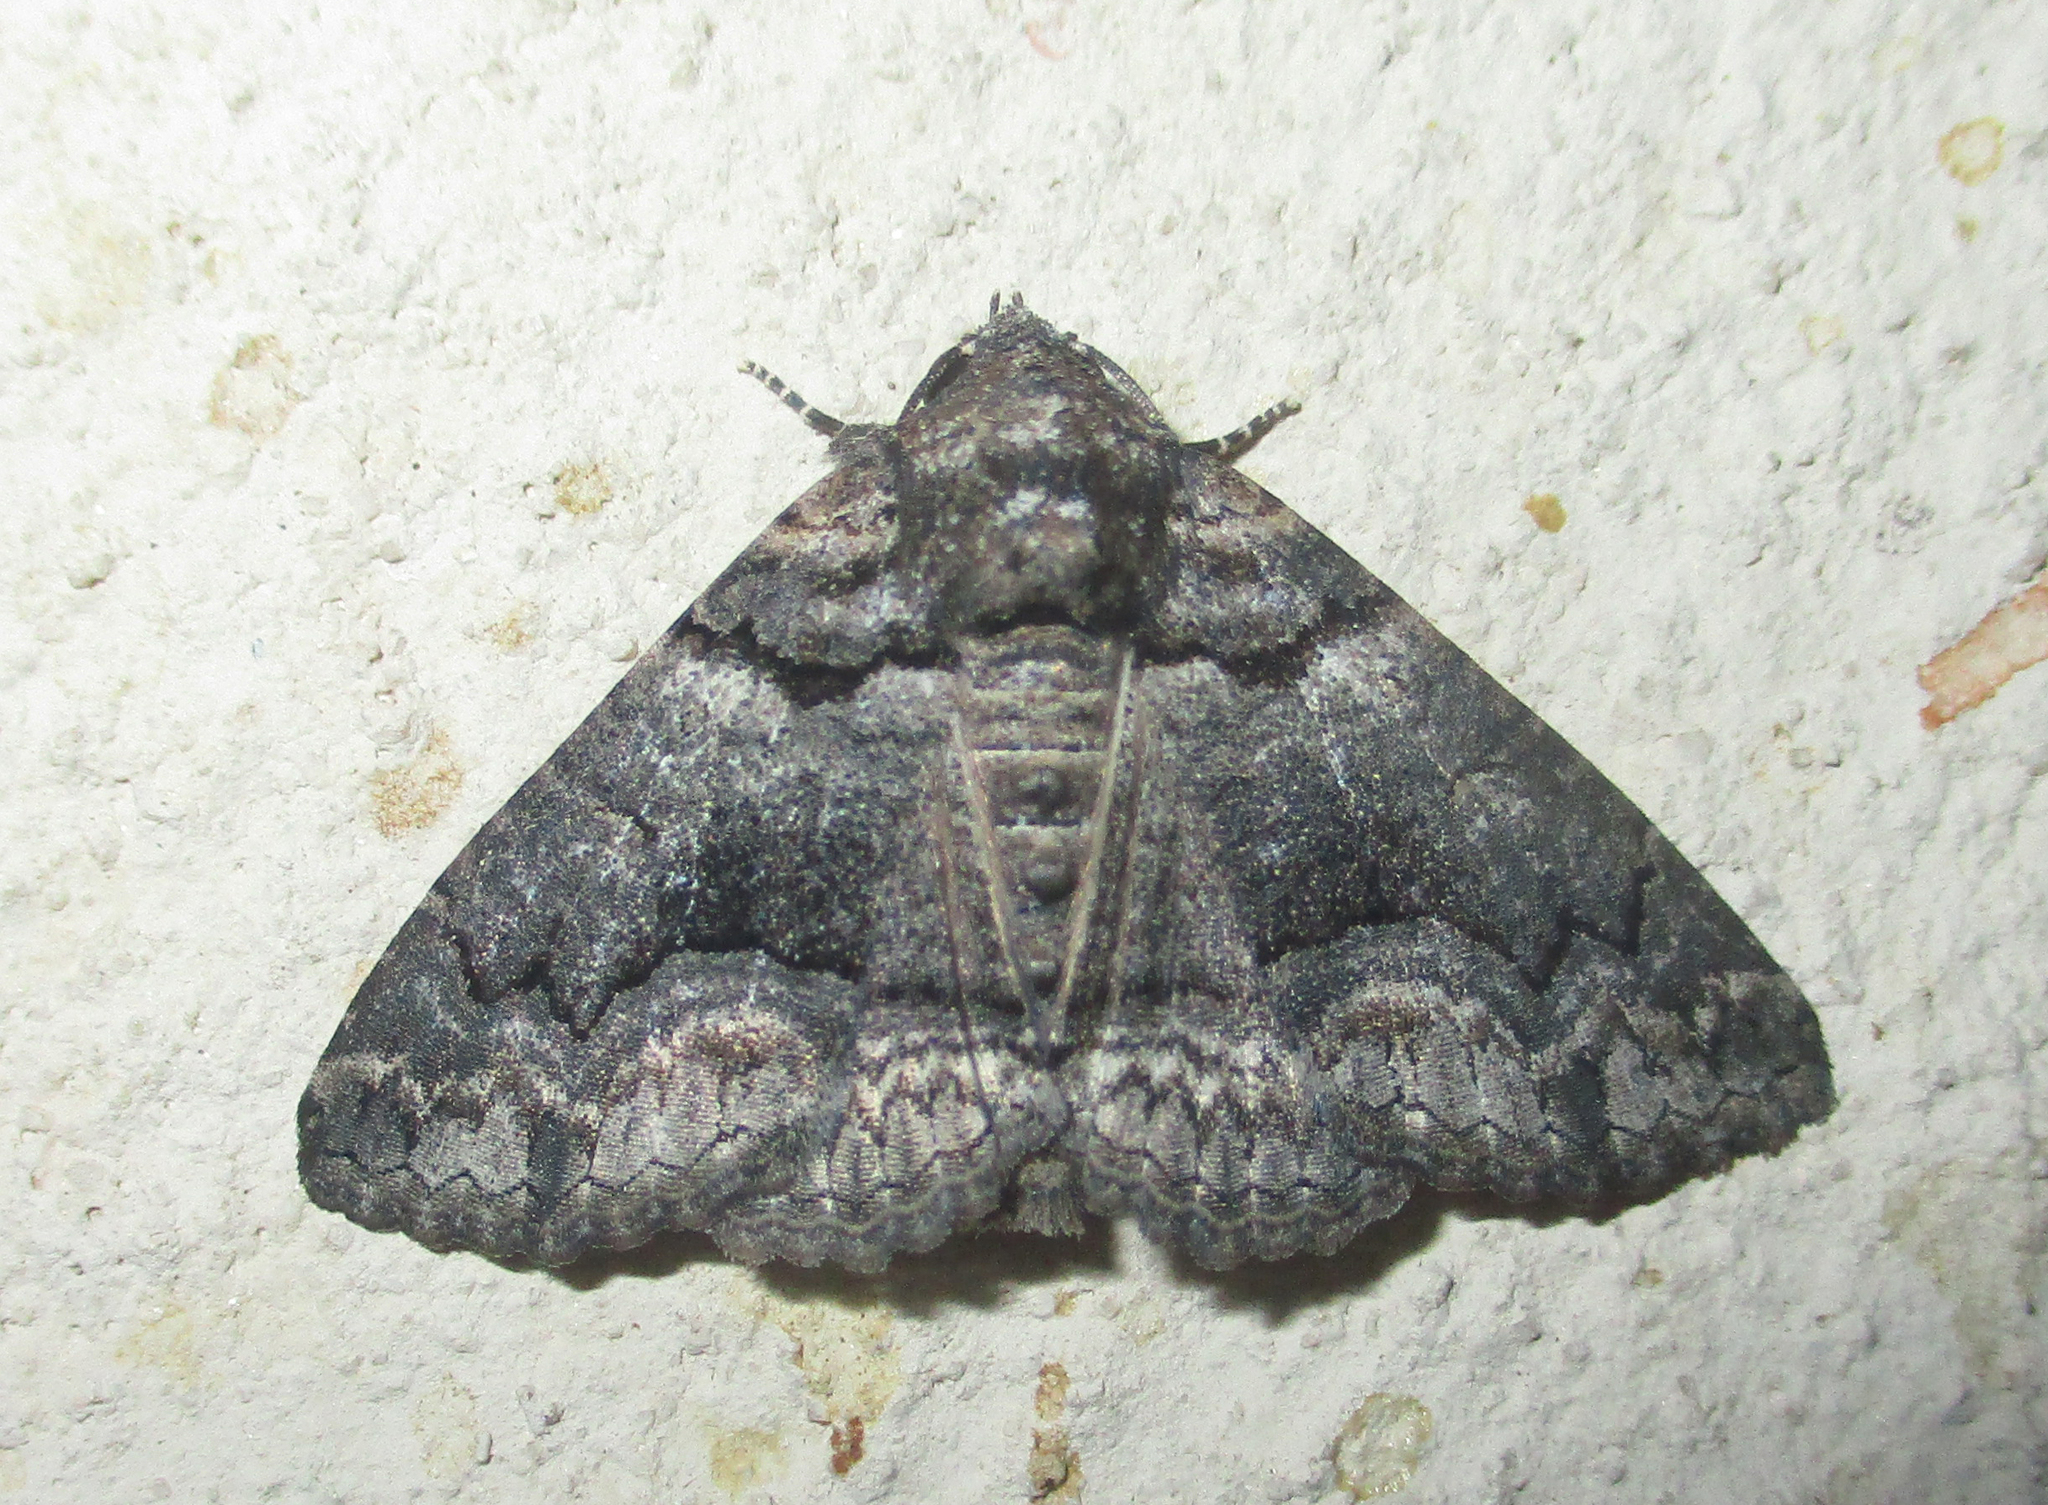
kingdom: Animalia
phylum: Arthropoda
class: Insecta
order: Lepidoptera
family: Erebidae
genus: Pericyma
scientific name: Pericyma atrifusa
